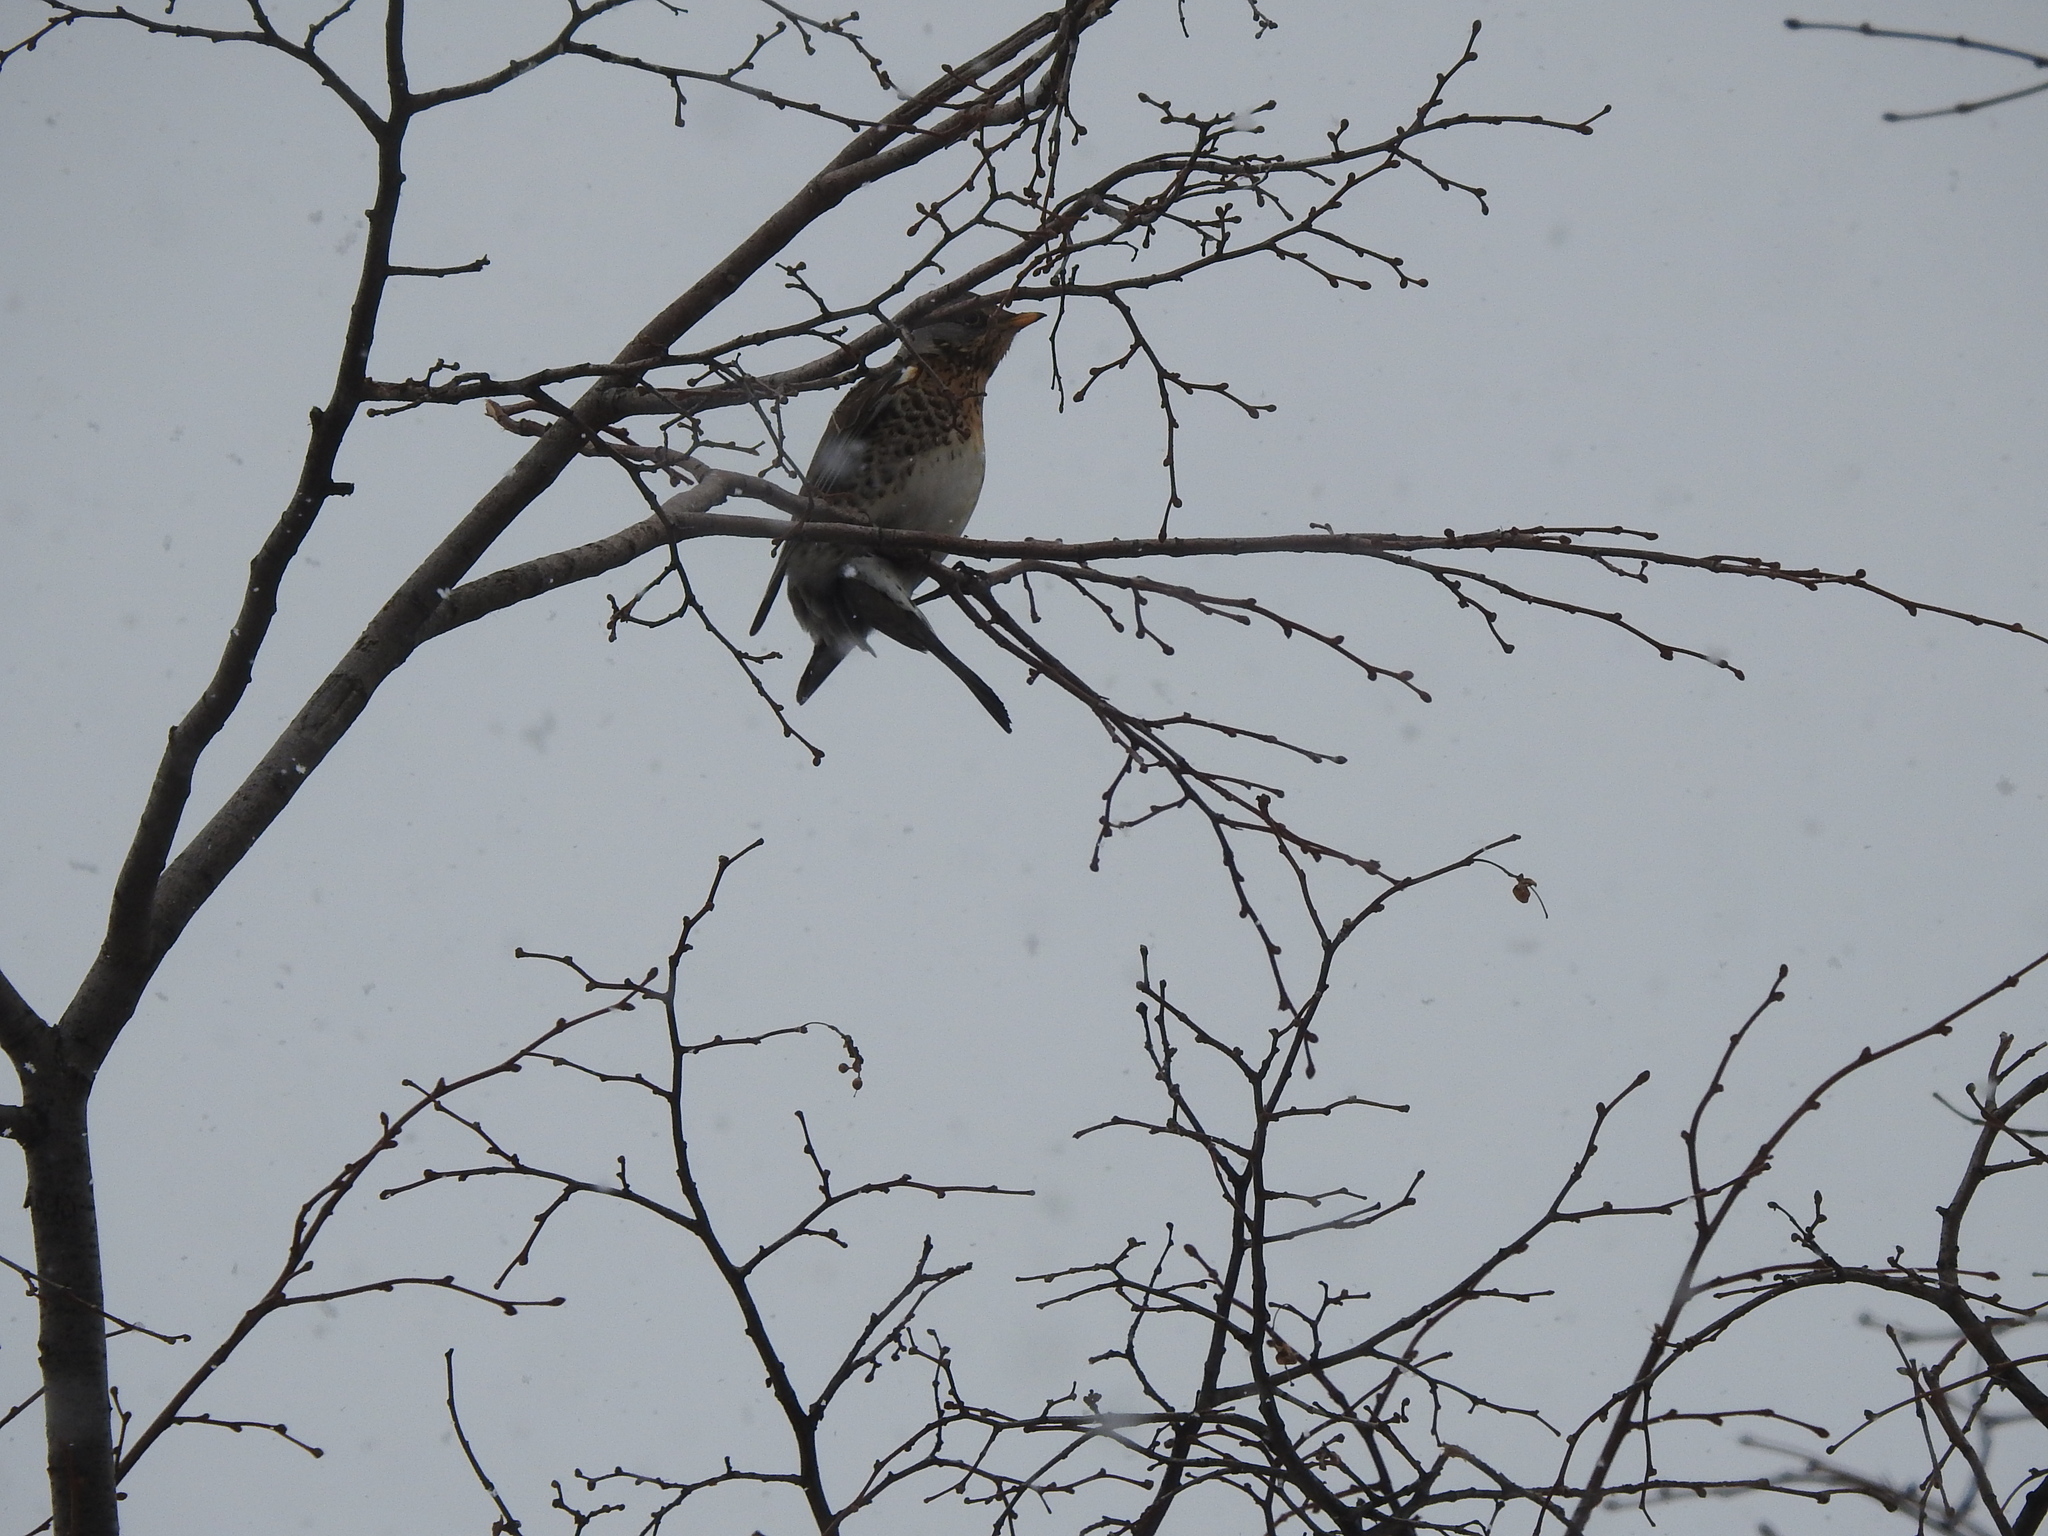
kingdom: Animalia
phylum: Chordata
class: Aves
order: Passeriformes
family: Turdidae
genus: Turdus
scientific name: Turdus pilaris
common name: Fieldfare
